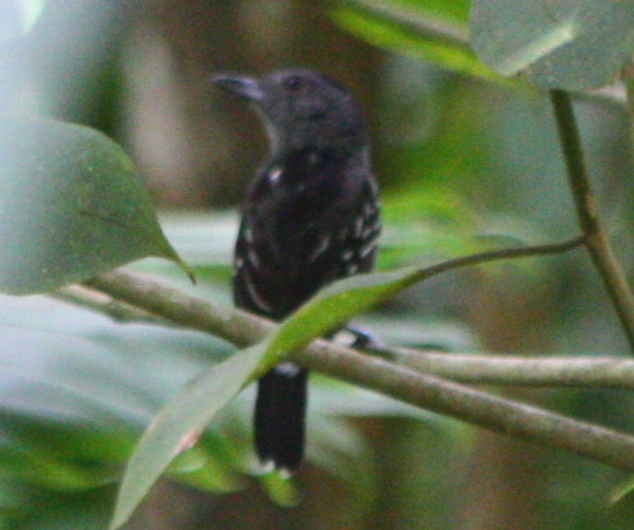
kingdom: Animalia
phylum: Chordata
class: Aves
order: Passeriformes
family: Thamnophilidae
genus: Thamnophilus
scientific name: Thamnophilus atrinucha
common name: Black-crowned antshrike
